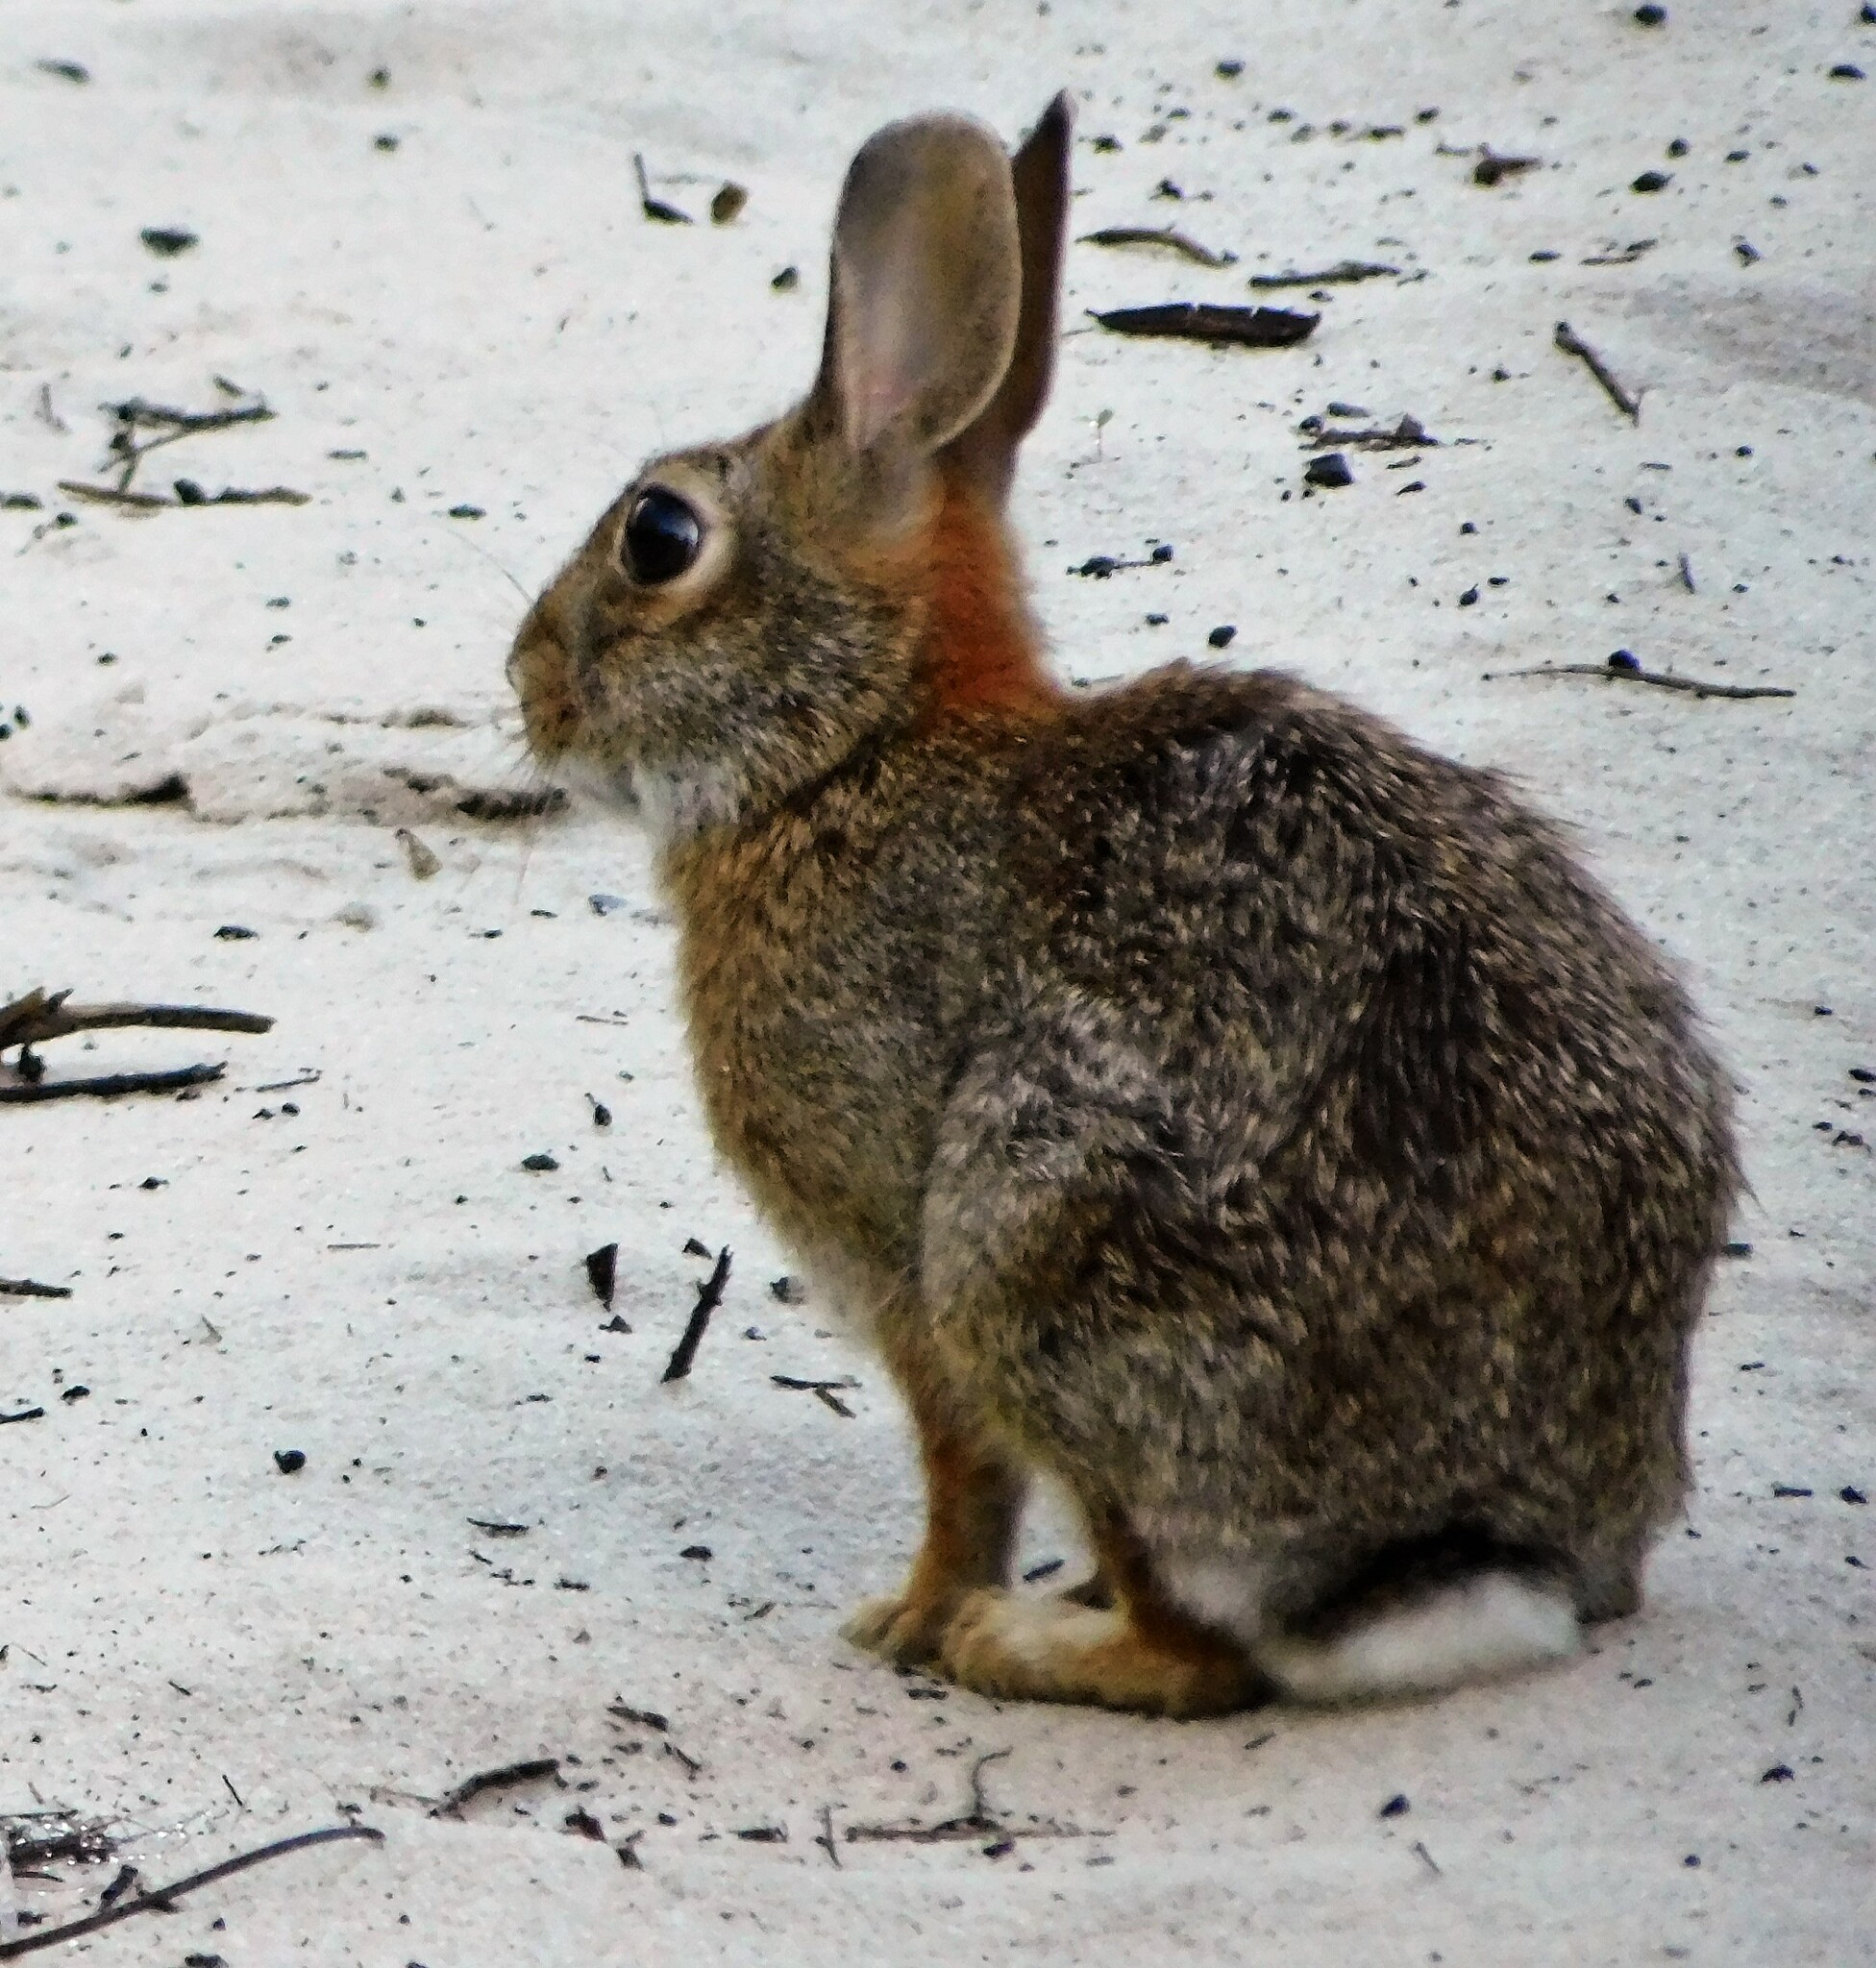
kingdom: Animalia
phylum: Chordata
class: Mammalia
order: Lagomorpha
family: Leporidae
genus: Sylvilagus
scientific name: Sylvilagus floridanus
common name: Eastern cottontail
